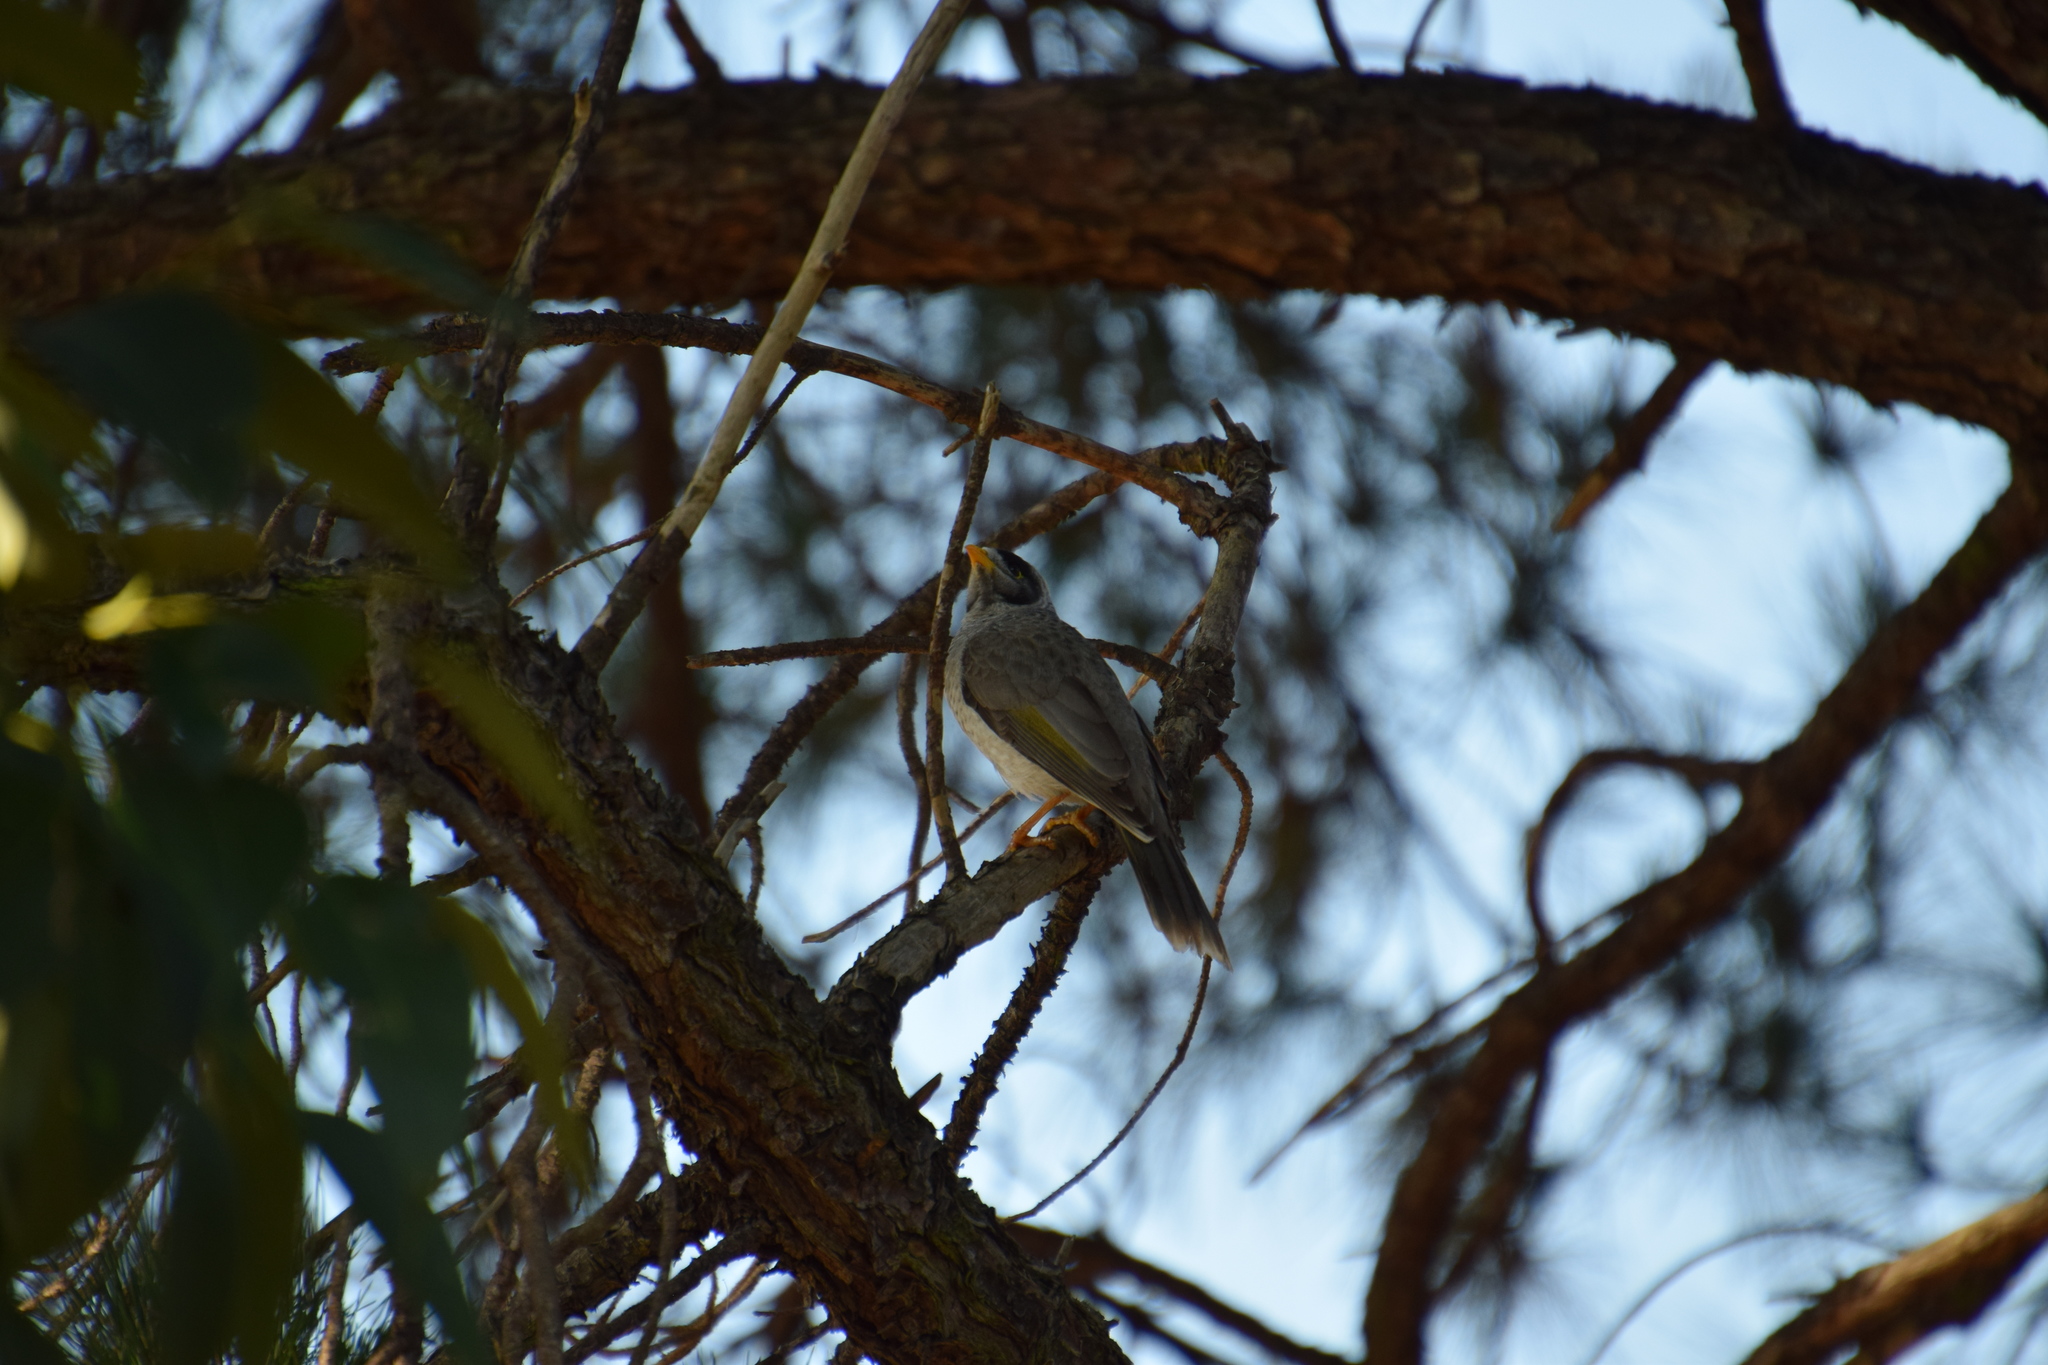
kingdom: Animalia
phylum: Chordata
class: Aves
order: Passeriformes
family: Meliphagidae
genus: Manorina
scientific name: Manorina melanocephala
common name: Noisy miner
